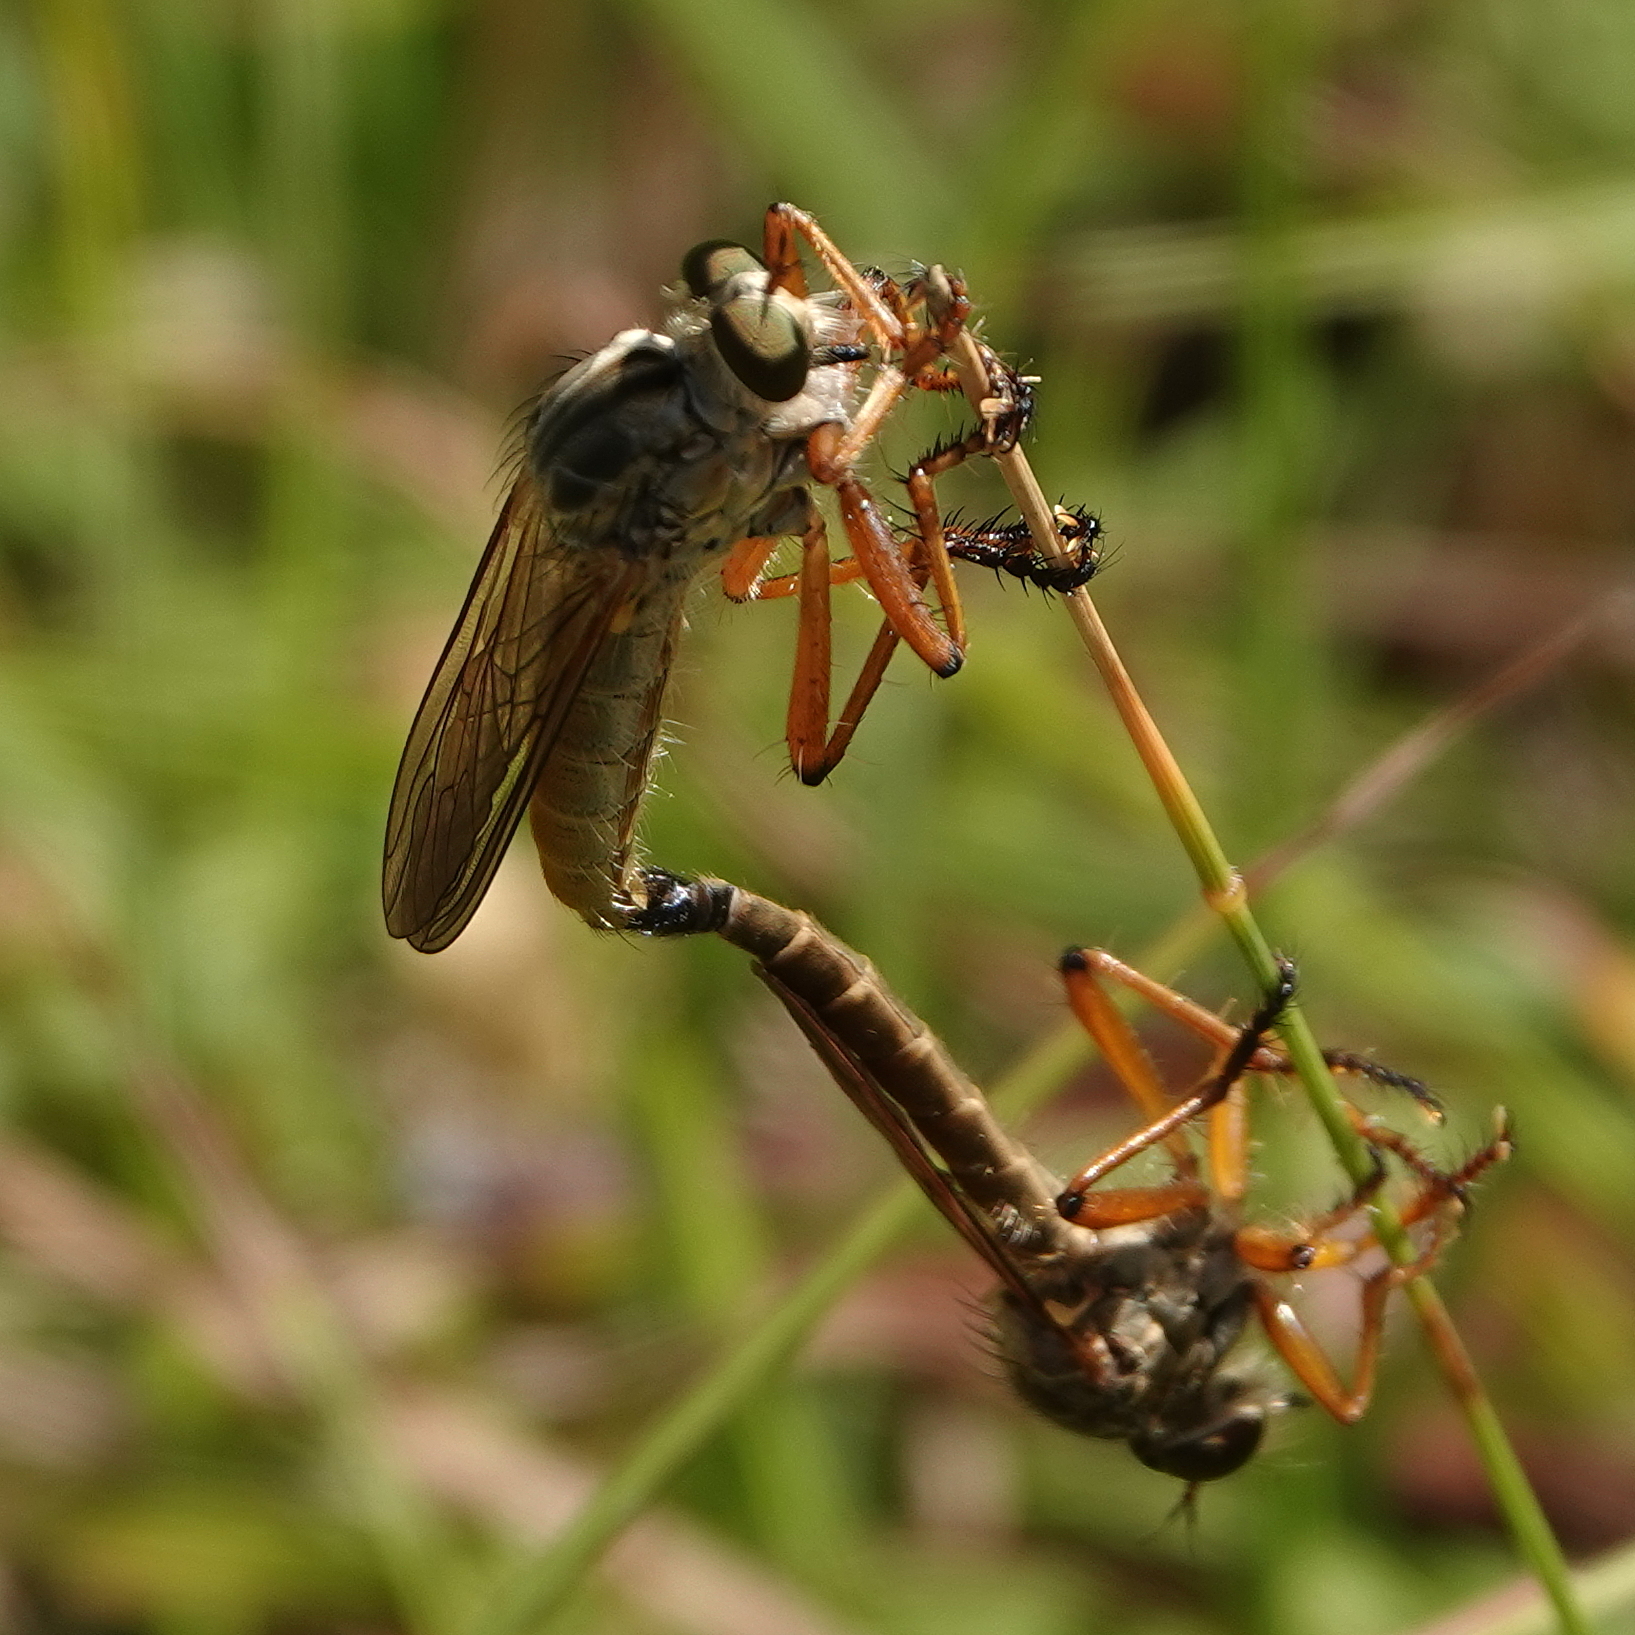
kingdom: Animalia
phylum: Arthropoda
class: Insecta
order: Diptera
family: Asilidae
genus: Zosteria
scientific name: Zosteria fulvipubescens
